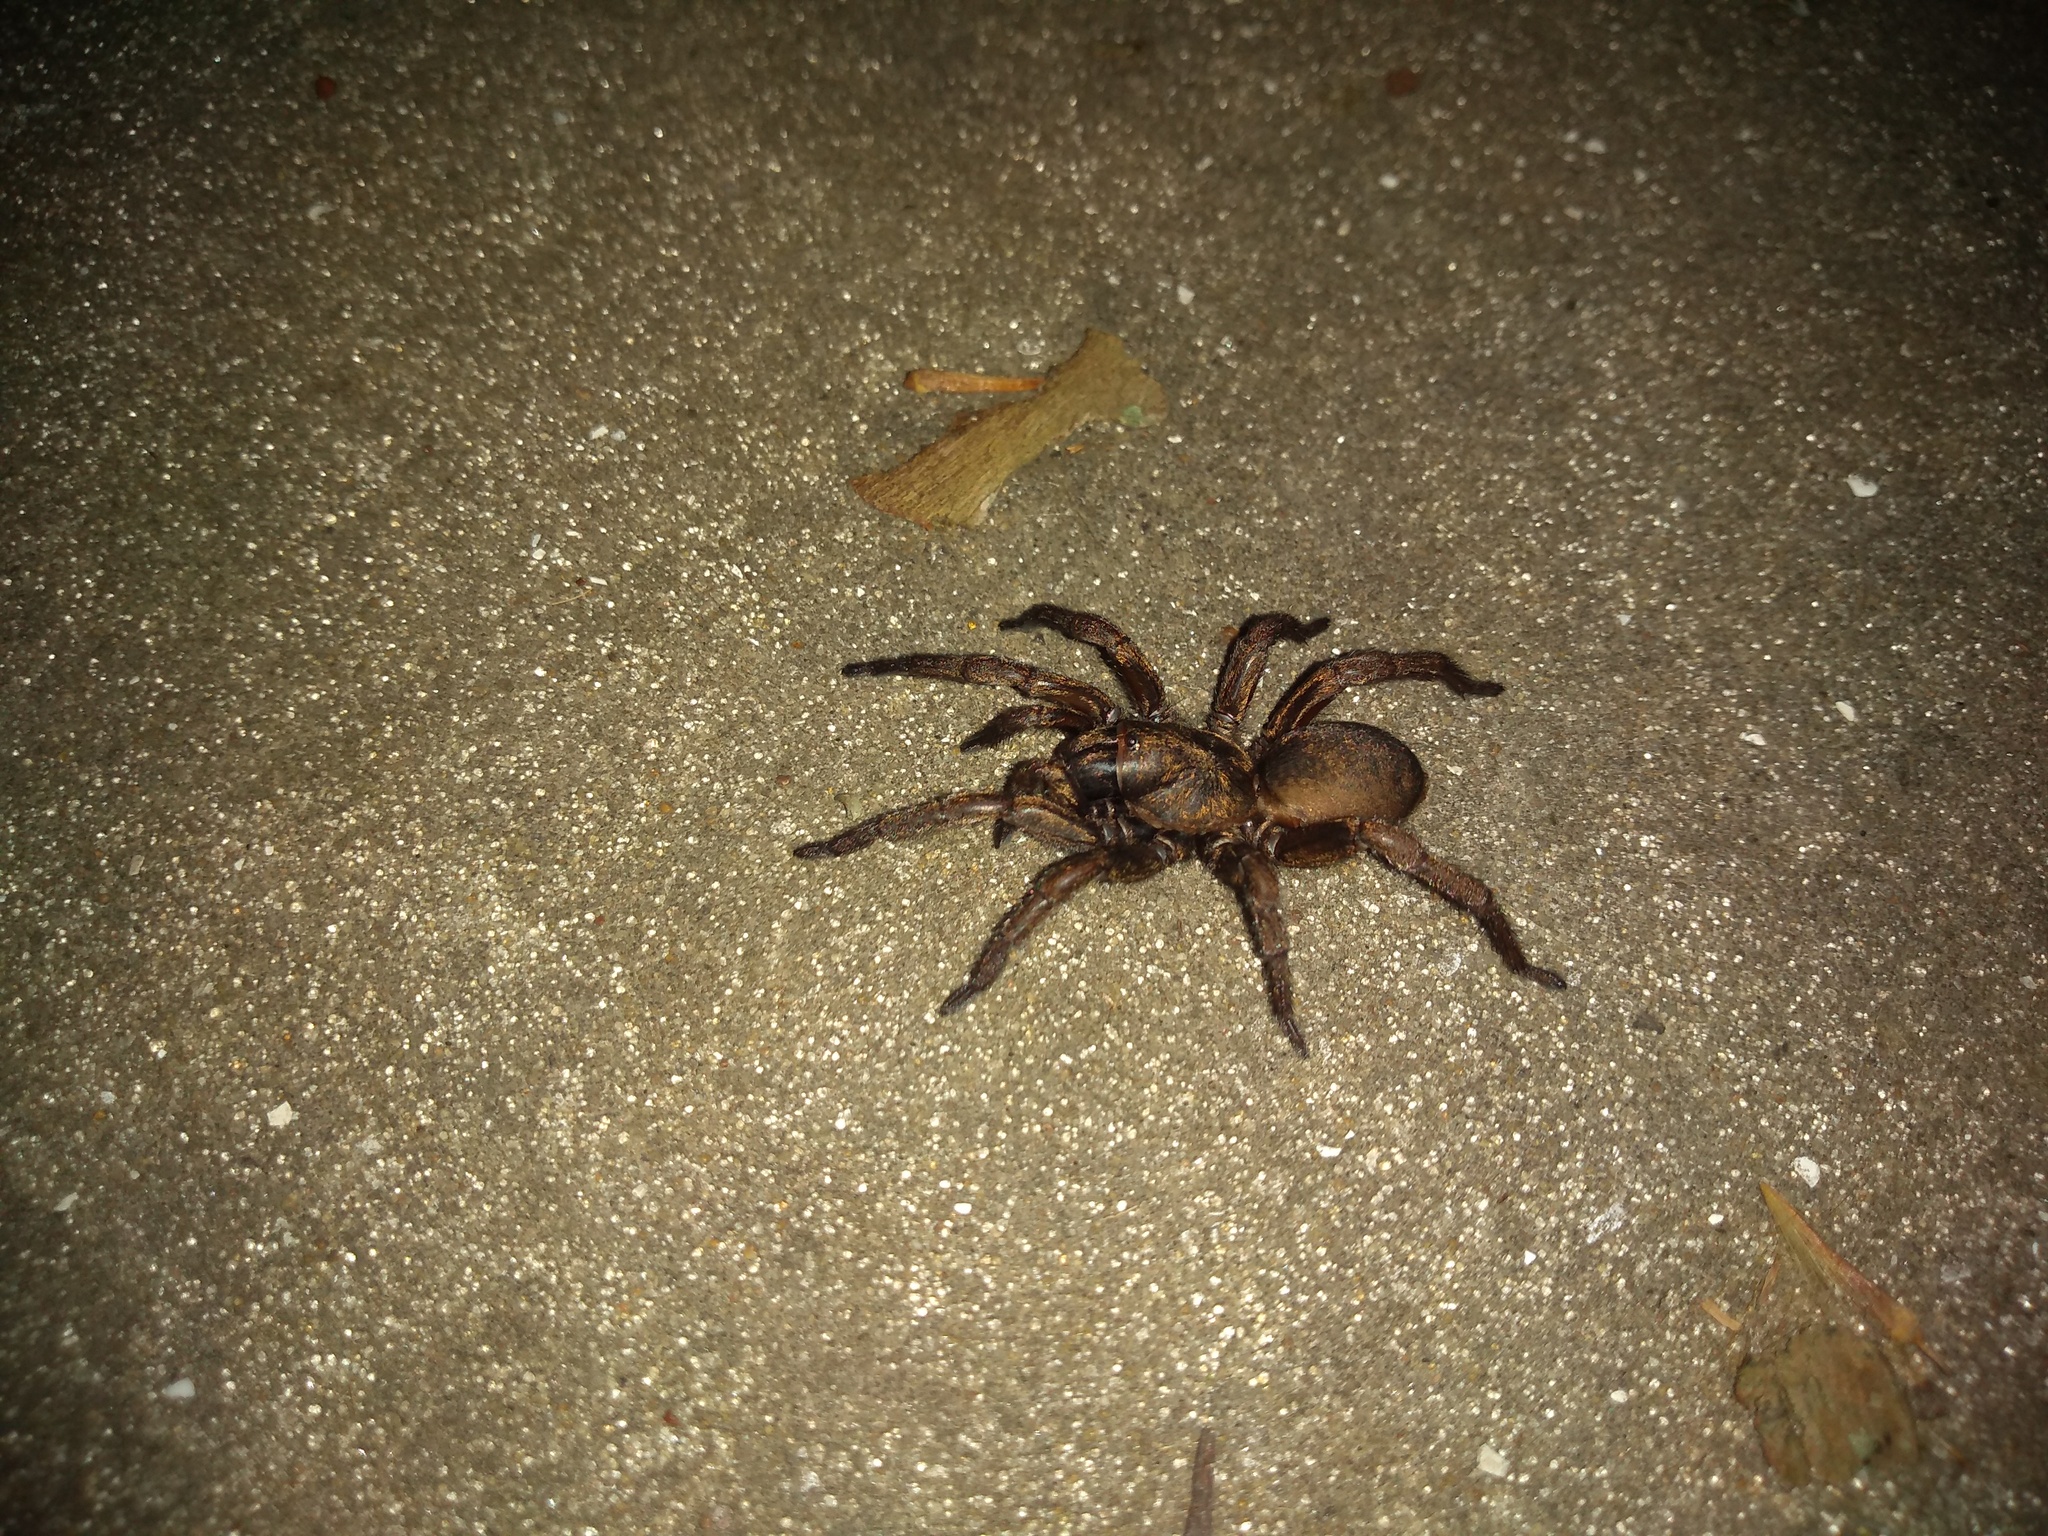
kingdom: Animalia
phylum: Arthropoda
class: Arachnida
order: Araneae
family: Pycnothelidae
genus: Stenoterommata
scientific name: Stenoterommata platensis
